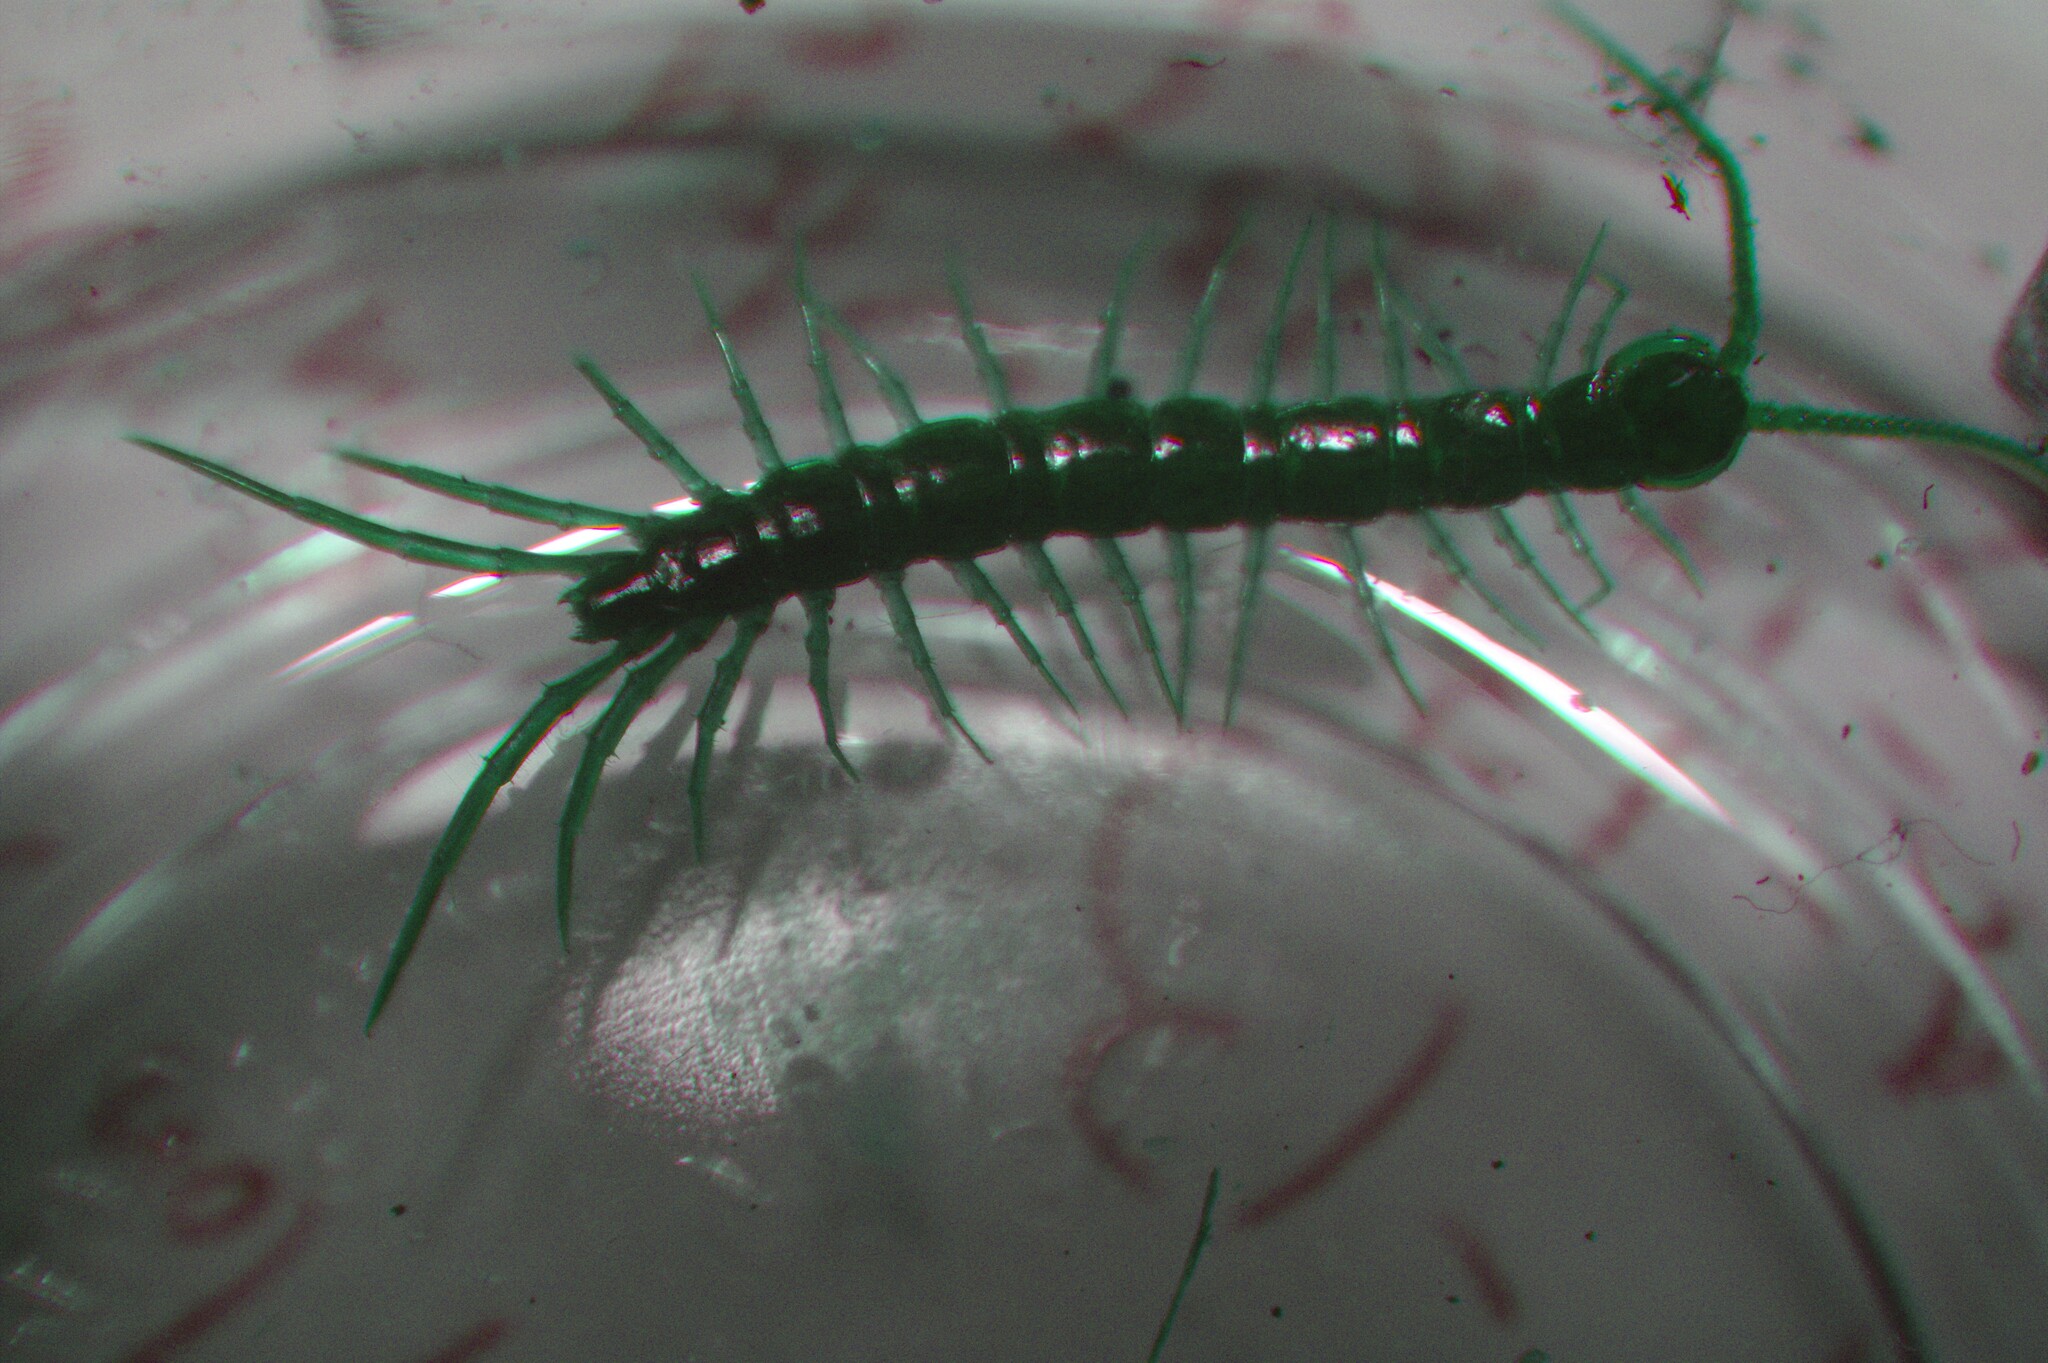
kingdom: Animalia
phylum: Arthropoda
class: Chilopoda
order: Lithobiomorpha
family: Lithobiidae
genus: Lithobius
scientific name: Lithobius forficatus
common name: Centipede
